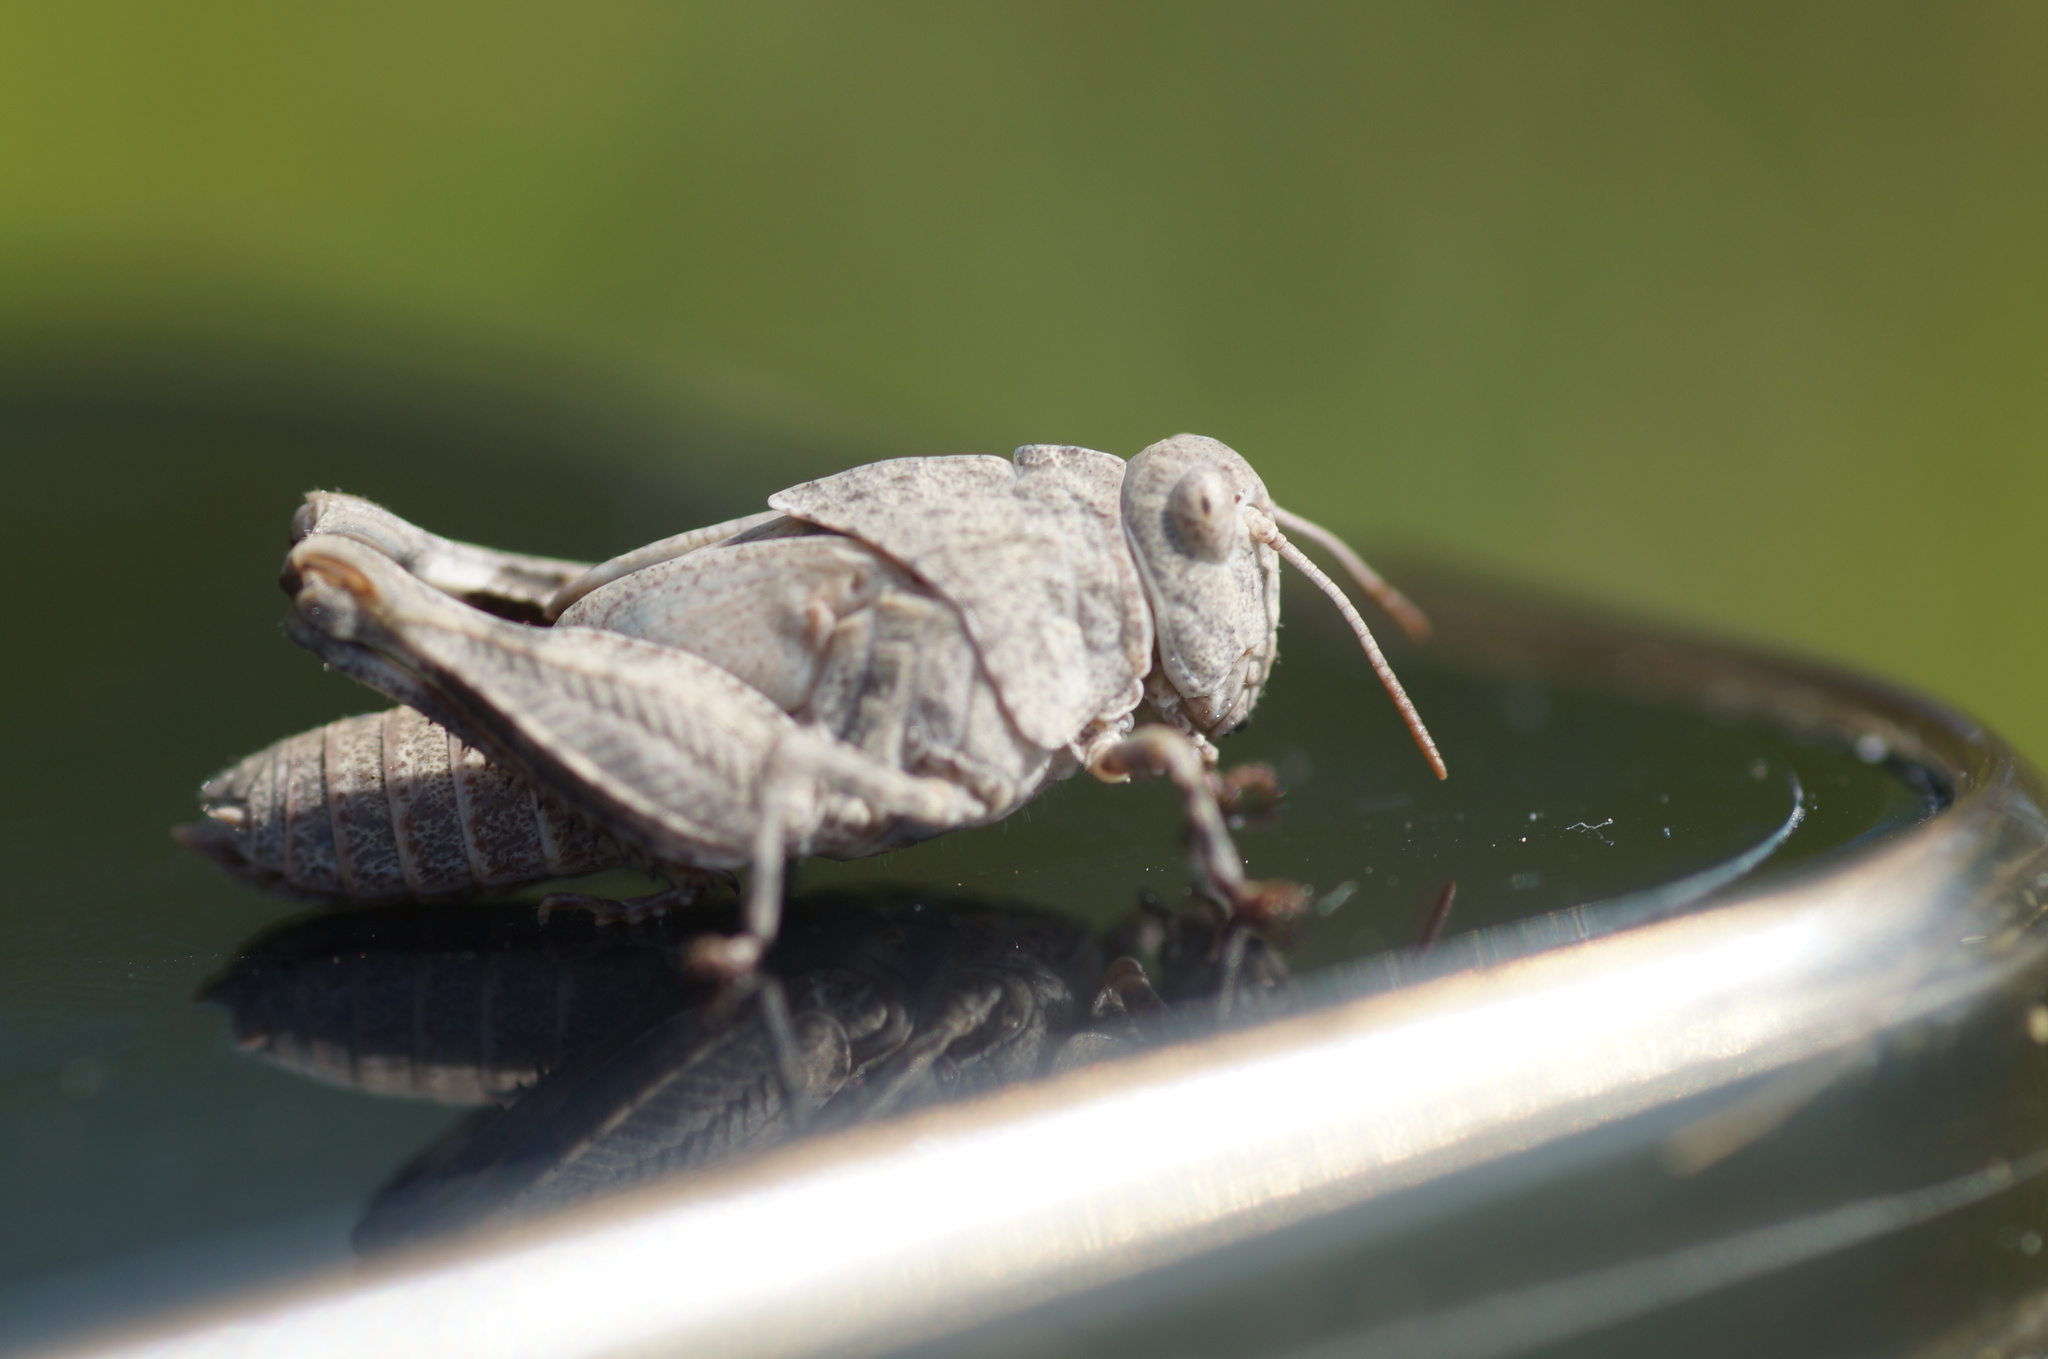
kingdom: Animalia
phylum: Arthropoda
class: Insecta
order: Orthoptera
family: Acrididae
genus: Oedipoda
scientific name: Oedipoda caerulescens
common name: Blue-winged grasshopper
